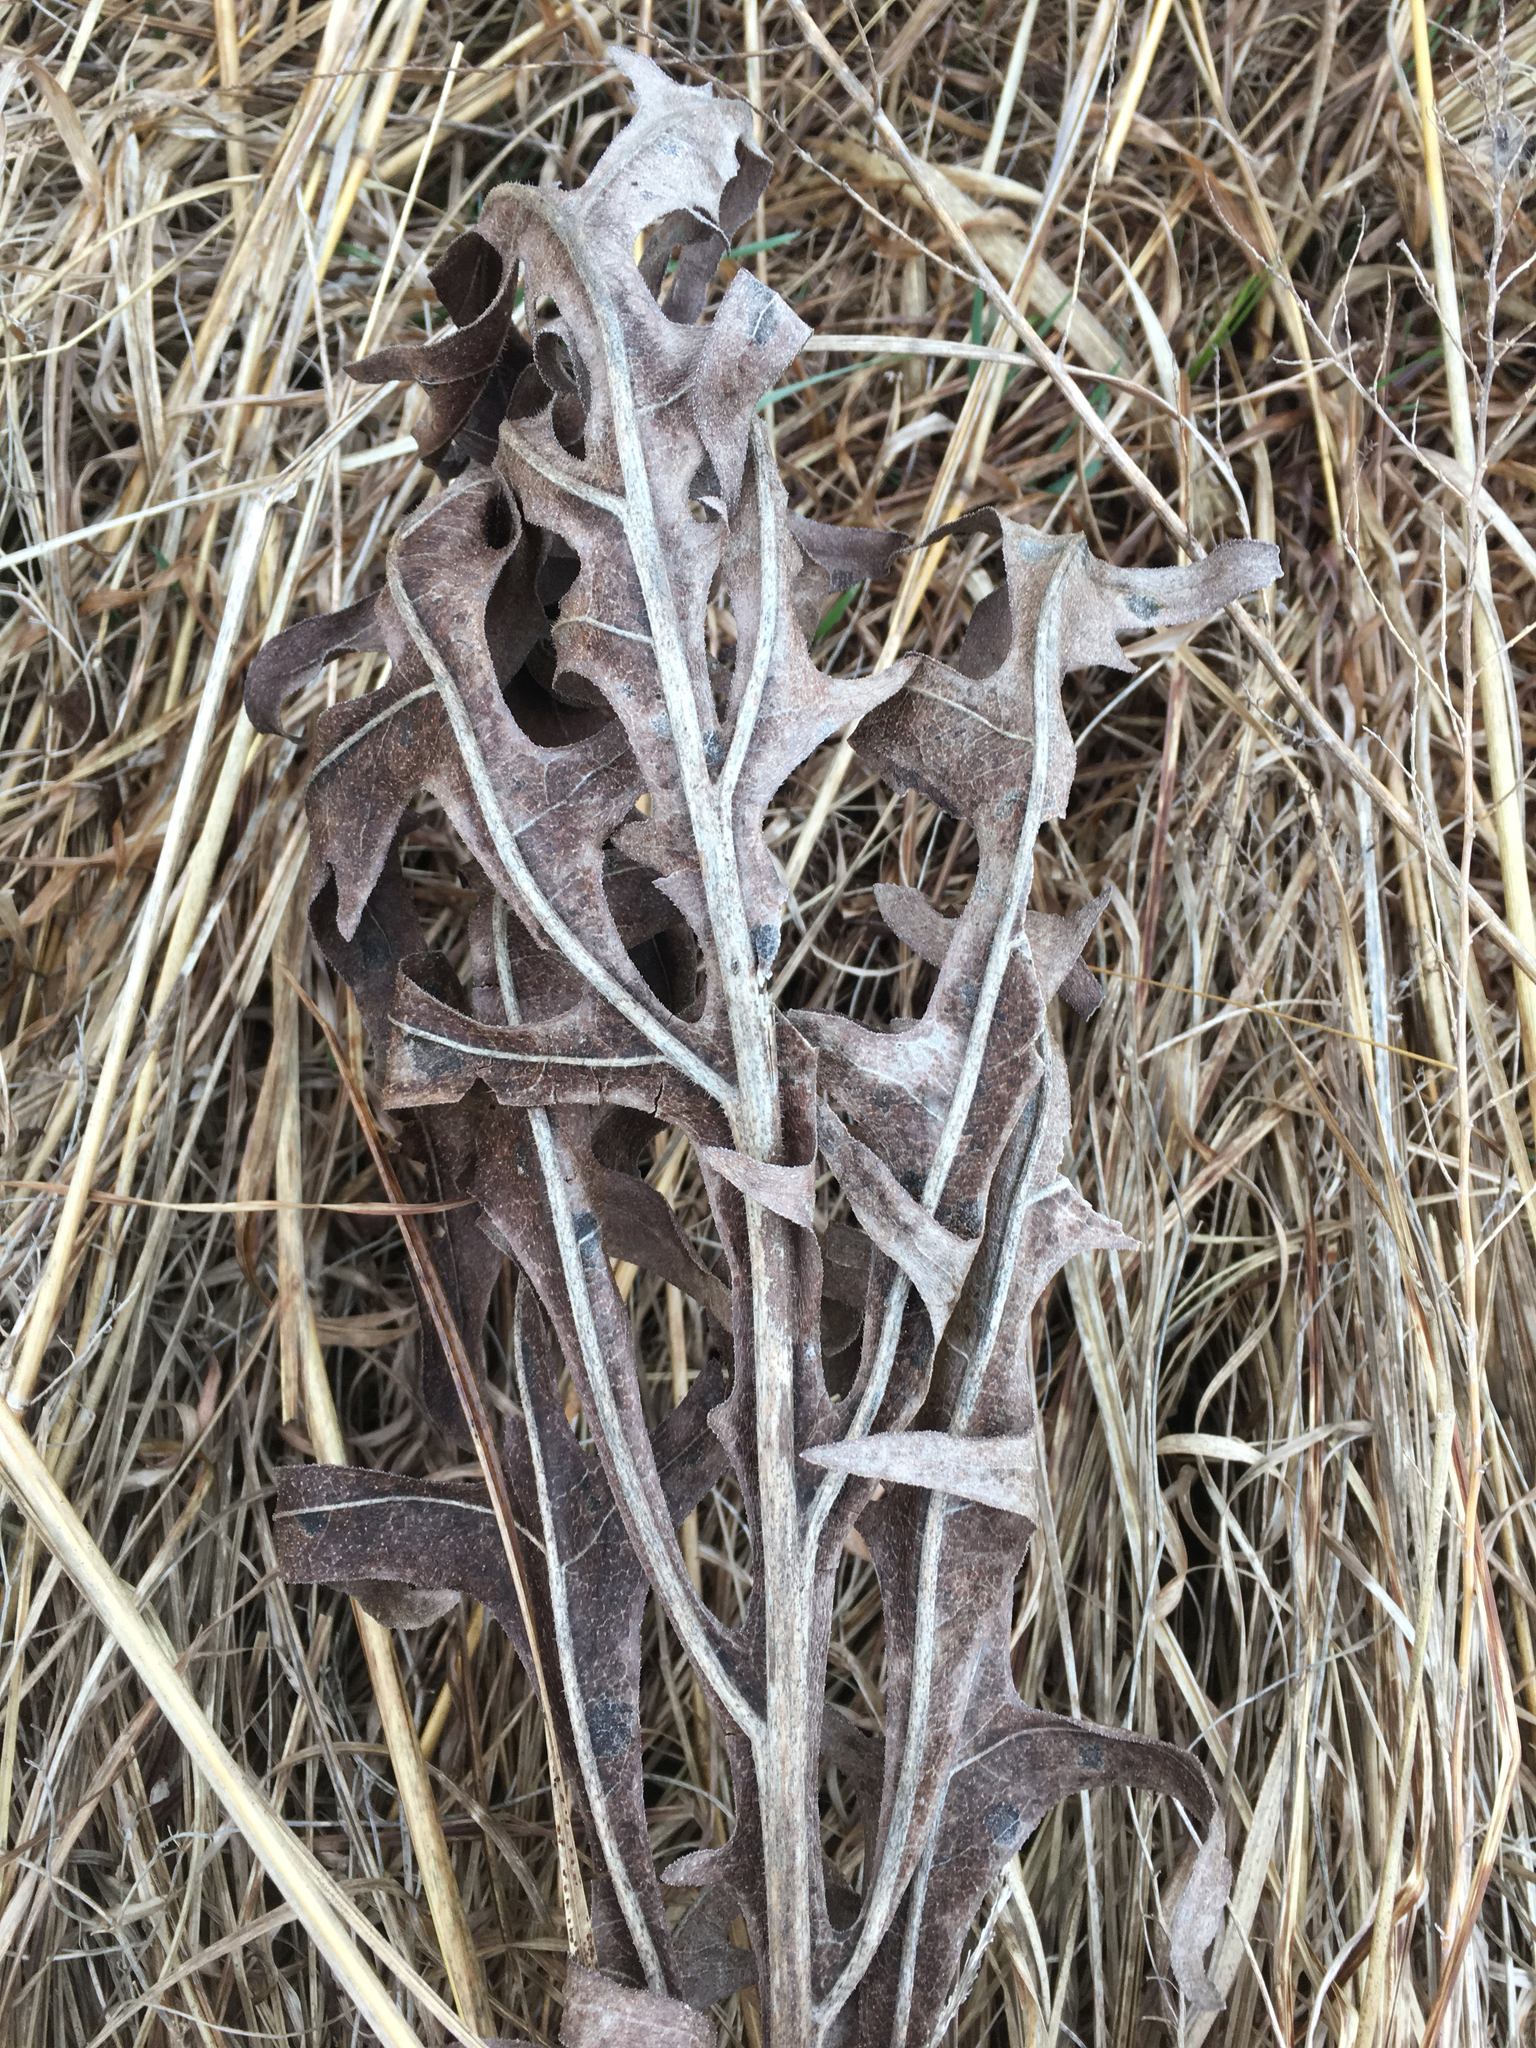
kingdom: Plantae
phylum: Tracheophyta
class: Magnoliopsida
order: Asterales
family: Asteraceae
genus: Silphium
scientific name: Silphium laciniatum
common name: Polarplant
